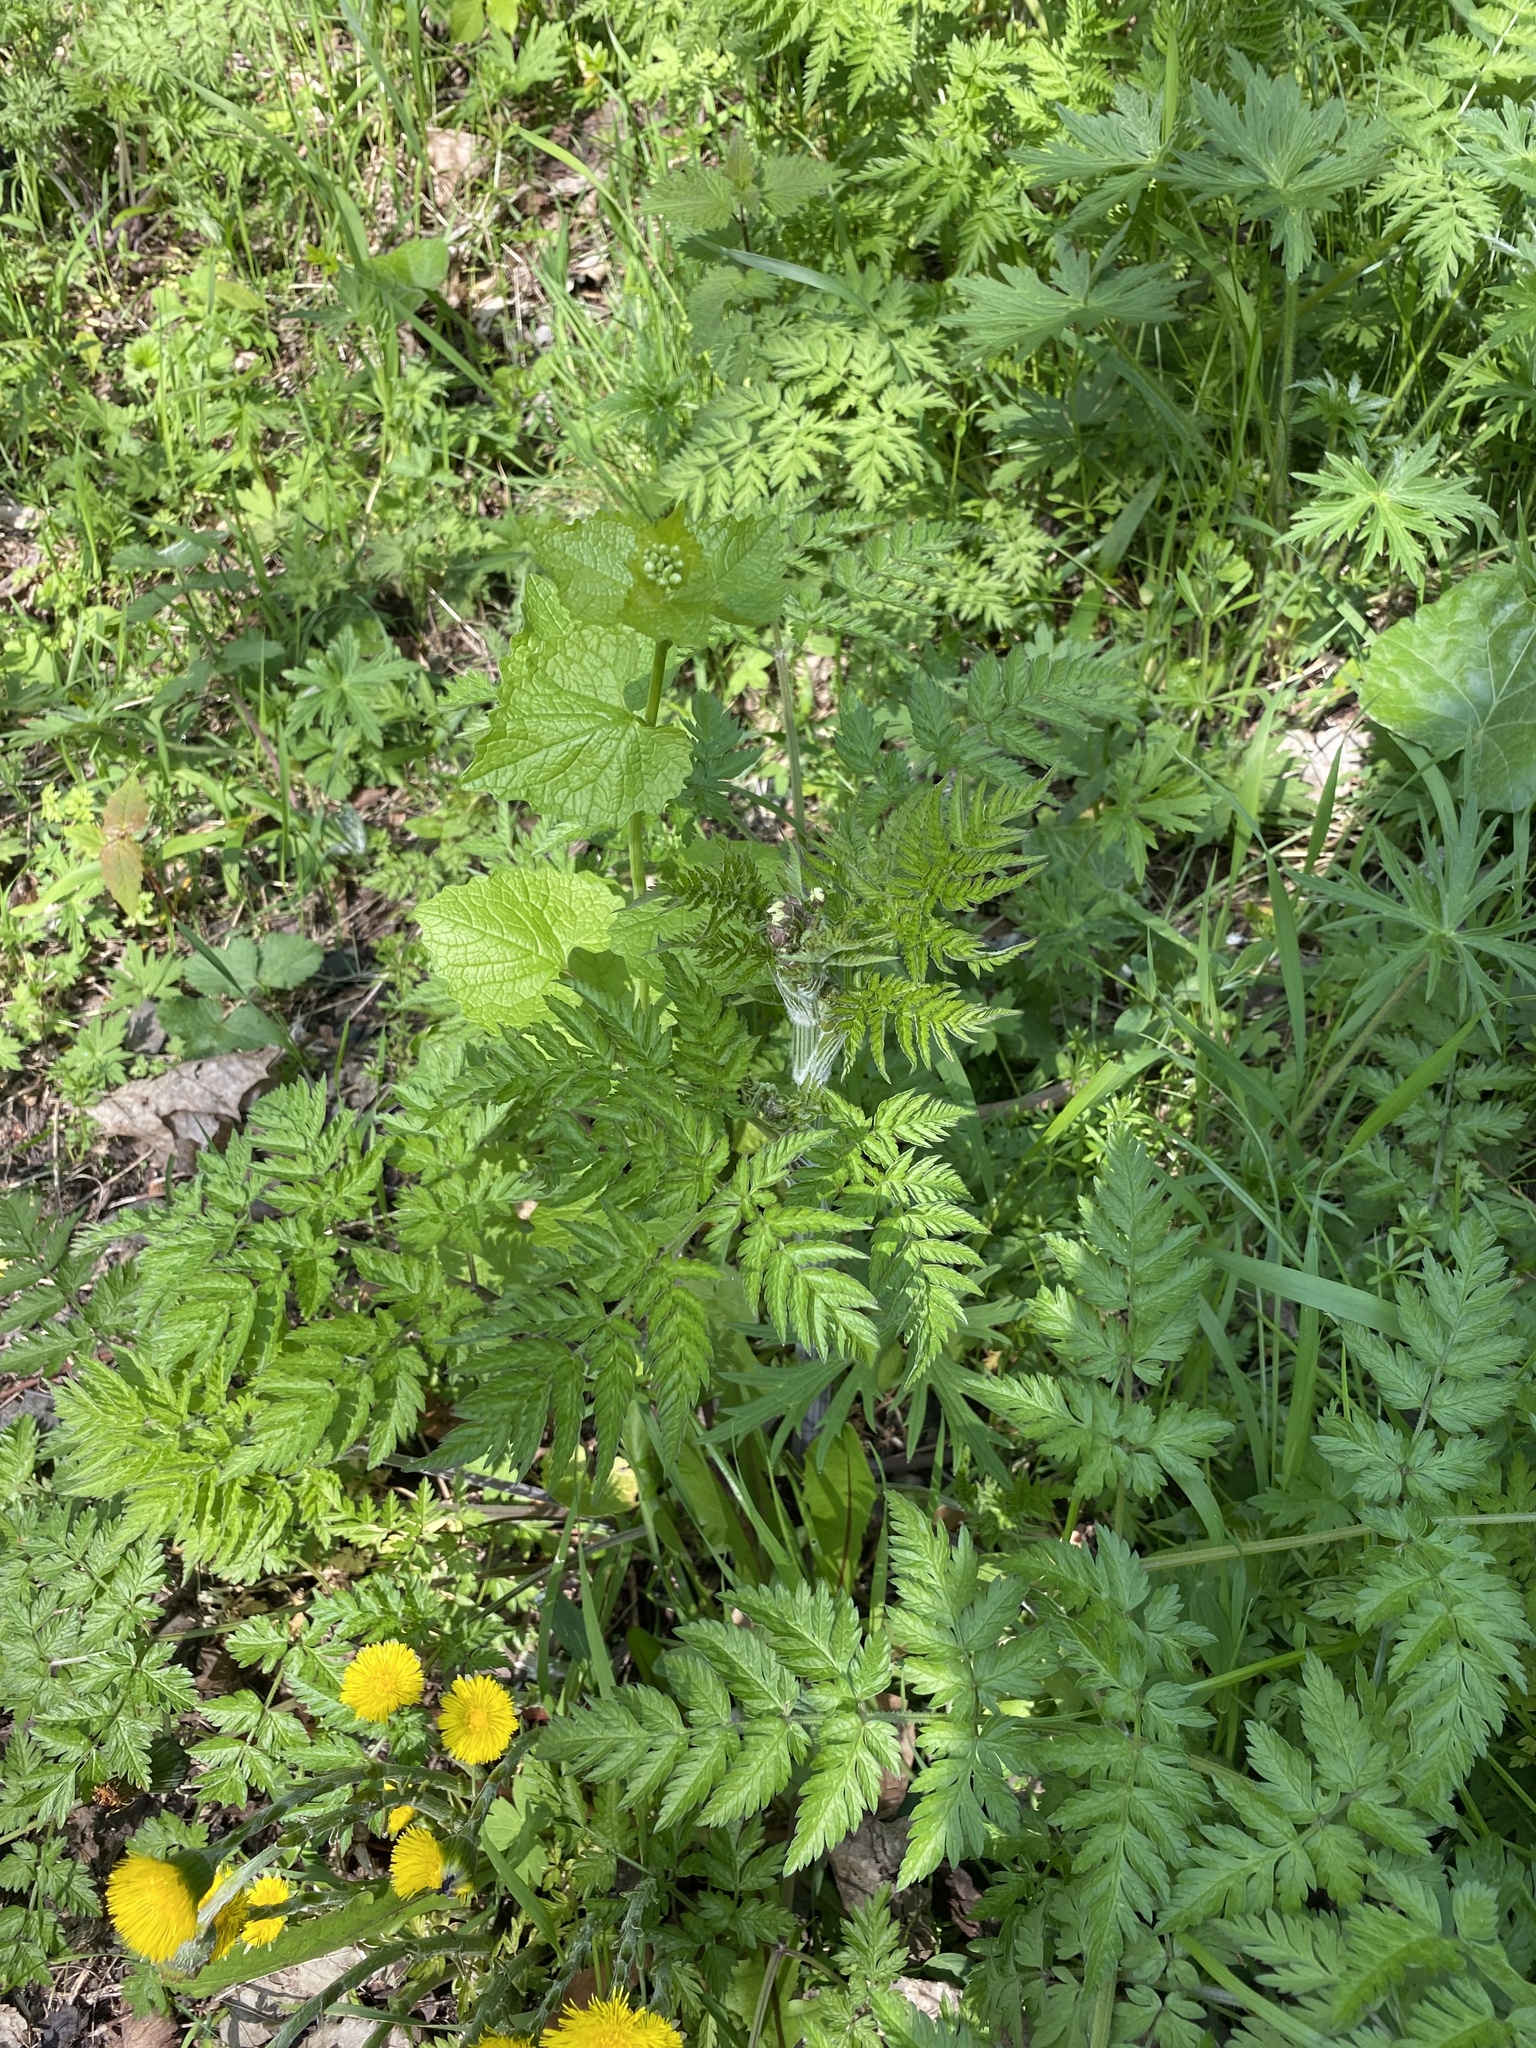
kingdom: Plantae
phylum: Tracheophyta
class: Magnoliopsida
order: Apiales
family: Apiaceae
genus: Anthriscus
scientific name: Anthriscus sylvestris
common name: Cow parsley
